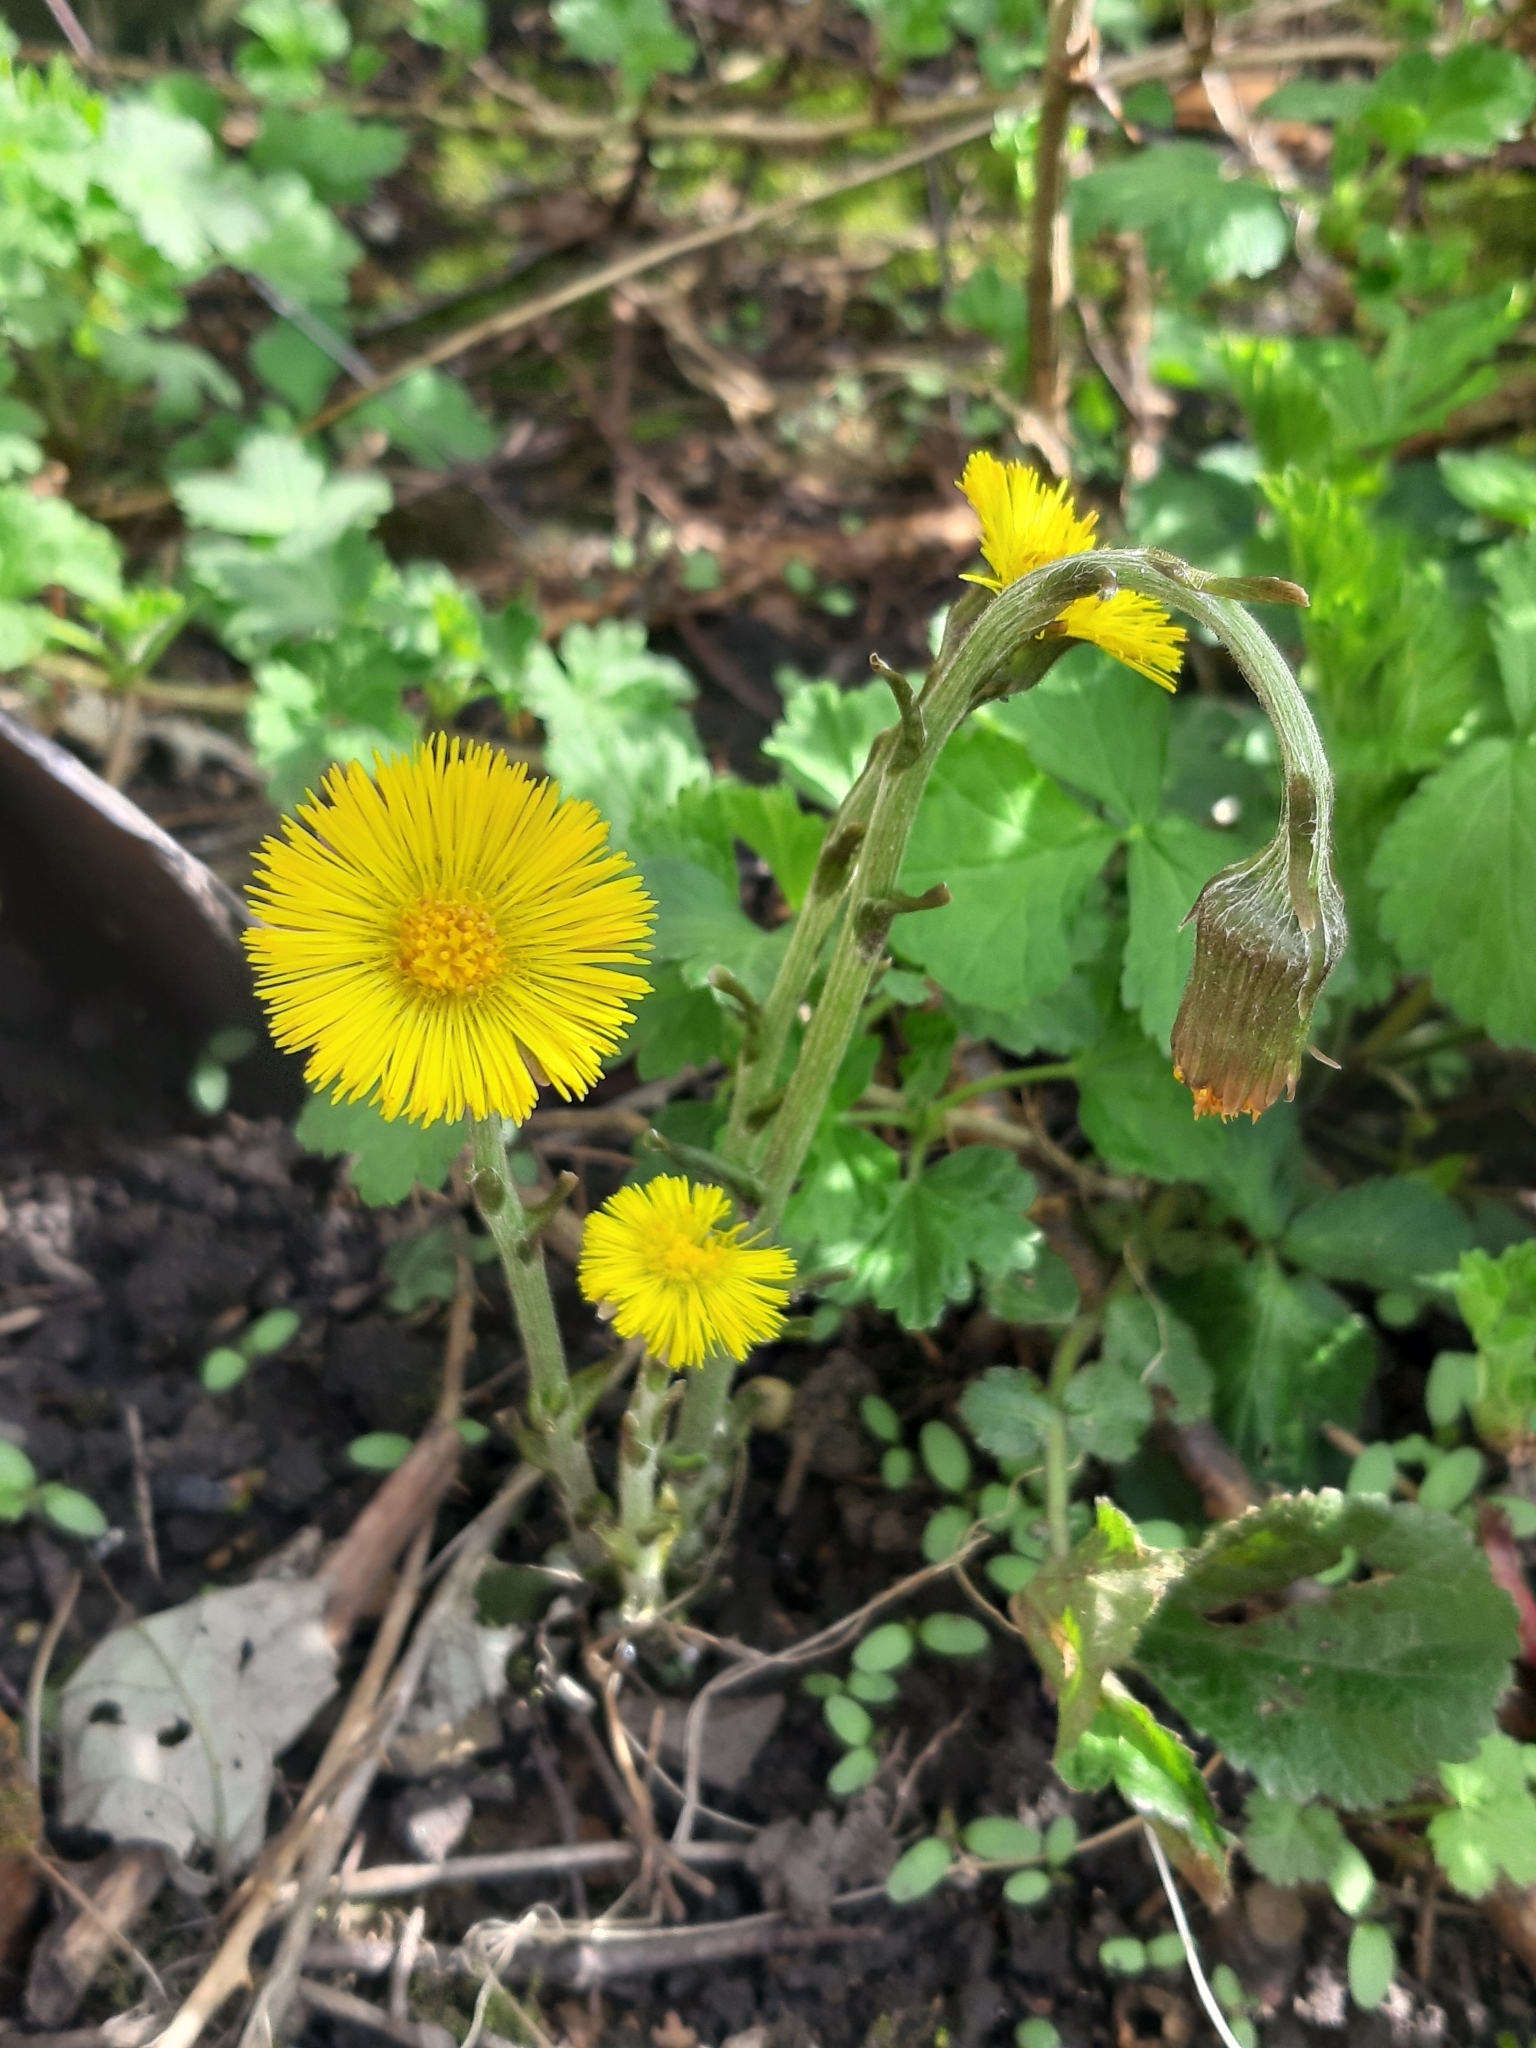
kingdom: Plantae
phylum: Tracheophyta
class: Magnoliopsida
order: Asterales
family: Asteraceae
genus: Tussilago
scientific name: Tussilago farfara
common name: Coltsfoot
